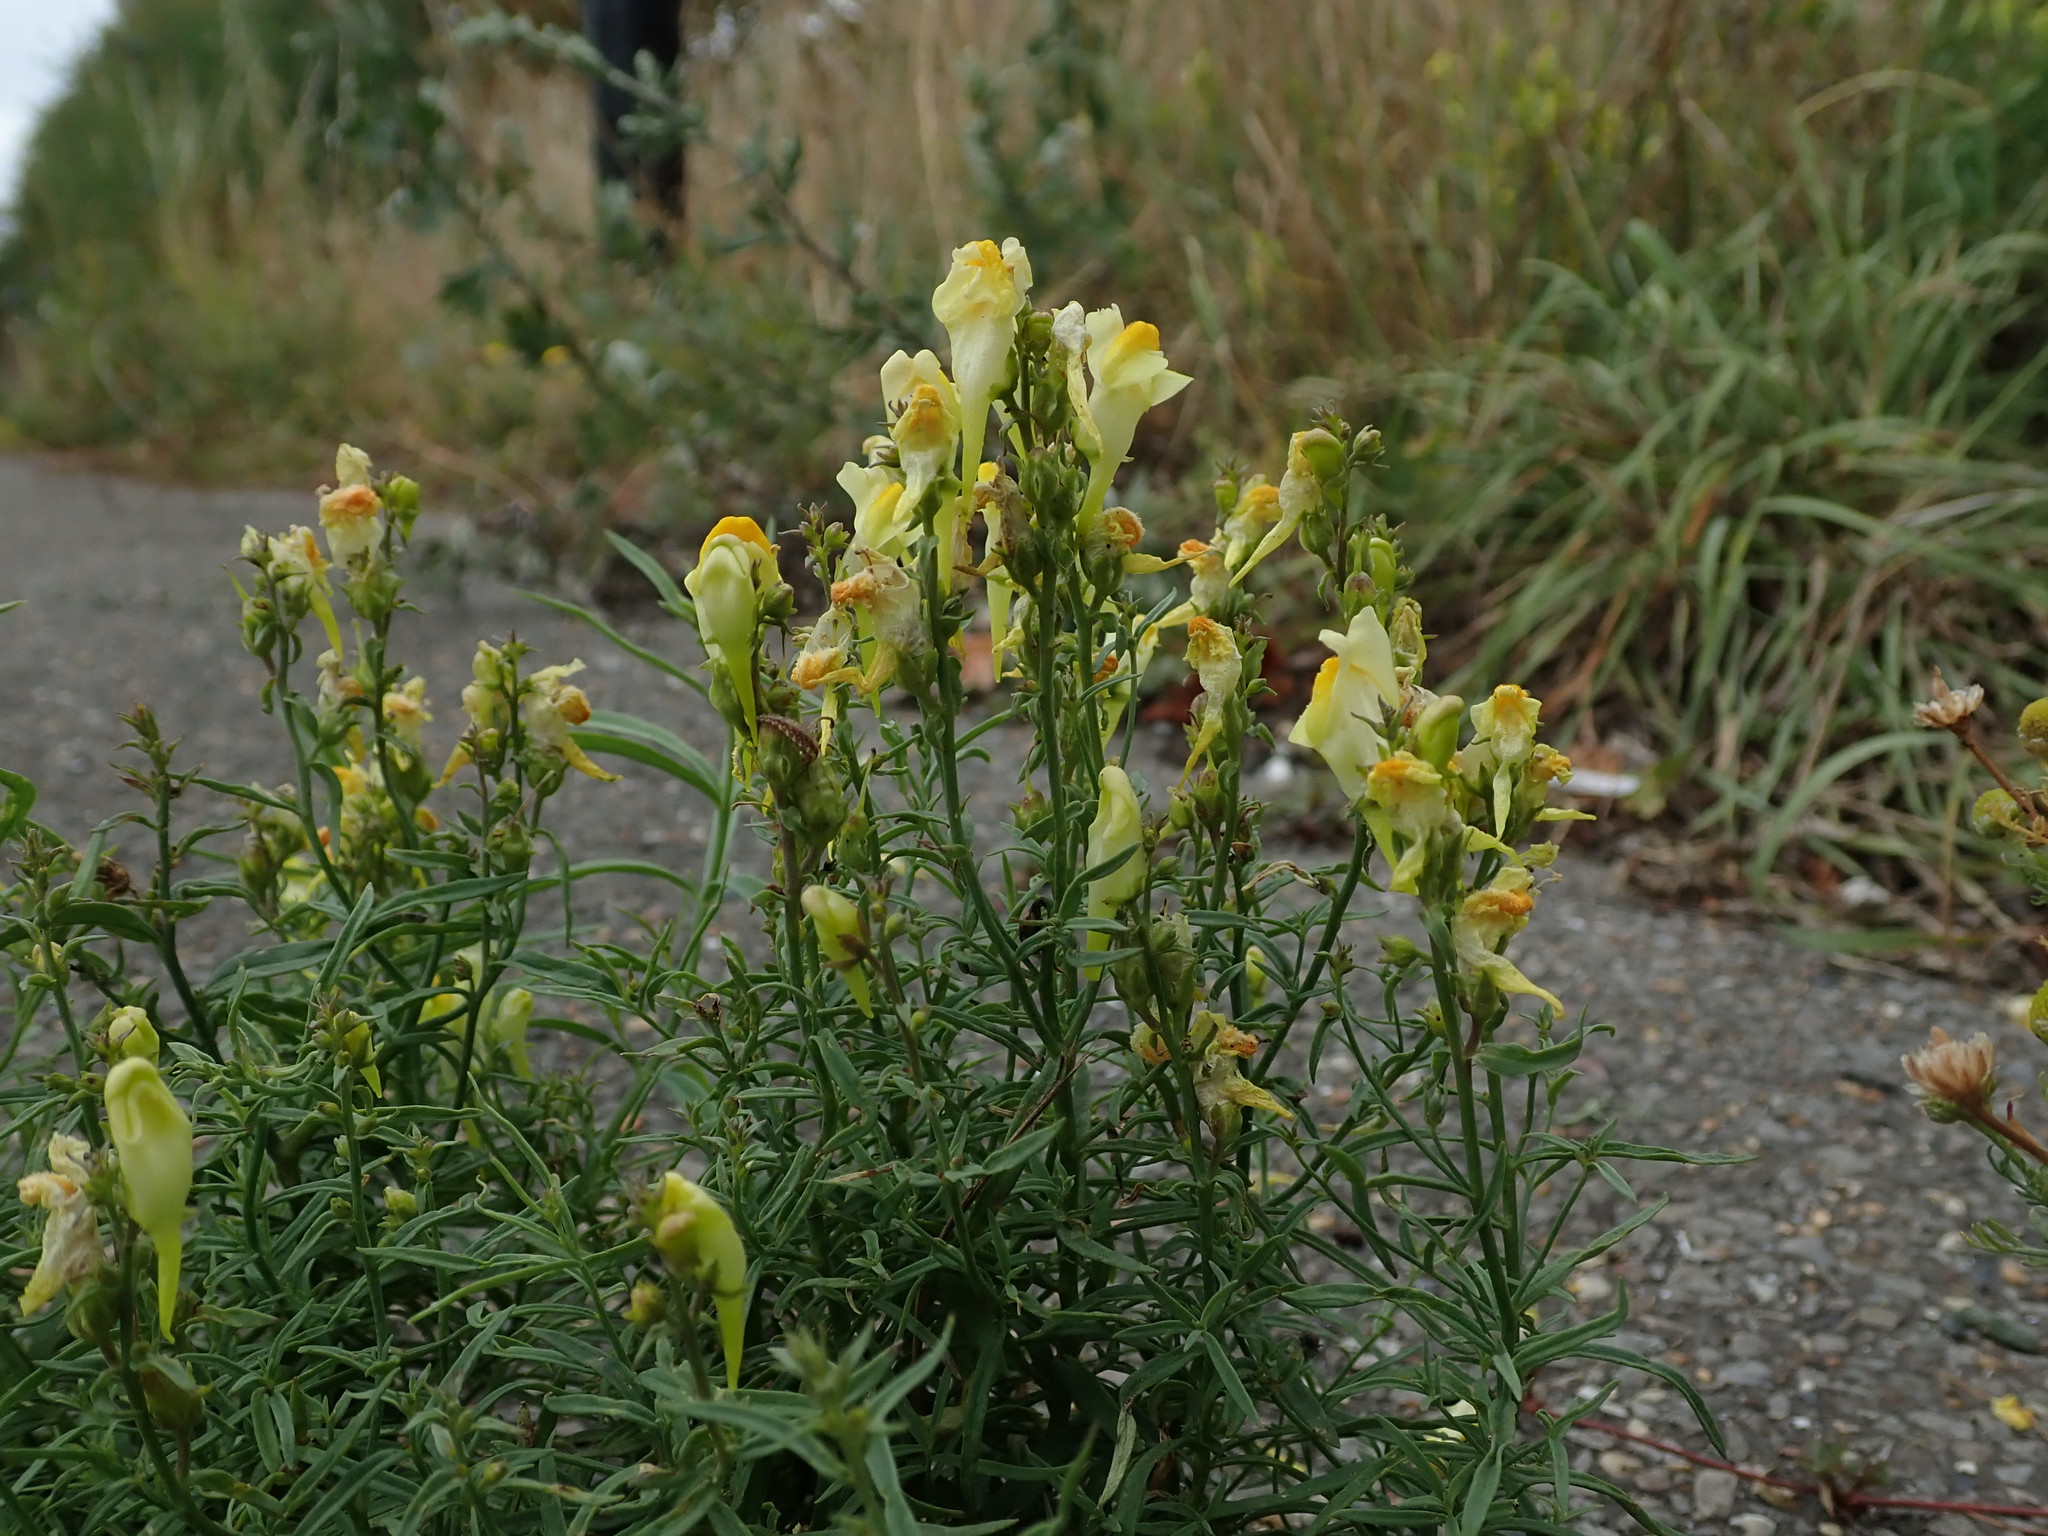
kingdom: Plantae
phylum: Tracheophyta
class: Magnoliopsida
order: Lamiales
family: Plantaginaceae
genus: Linaria
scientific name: Linaria vulgaris
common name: Butter and eggs
